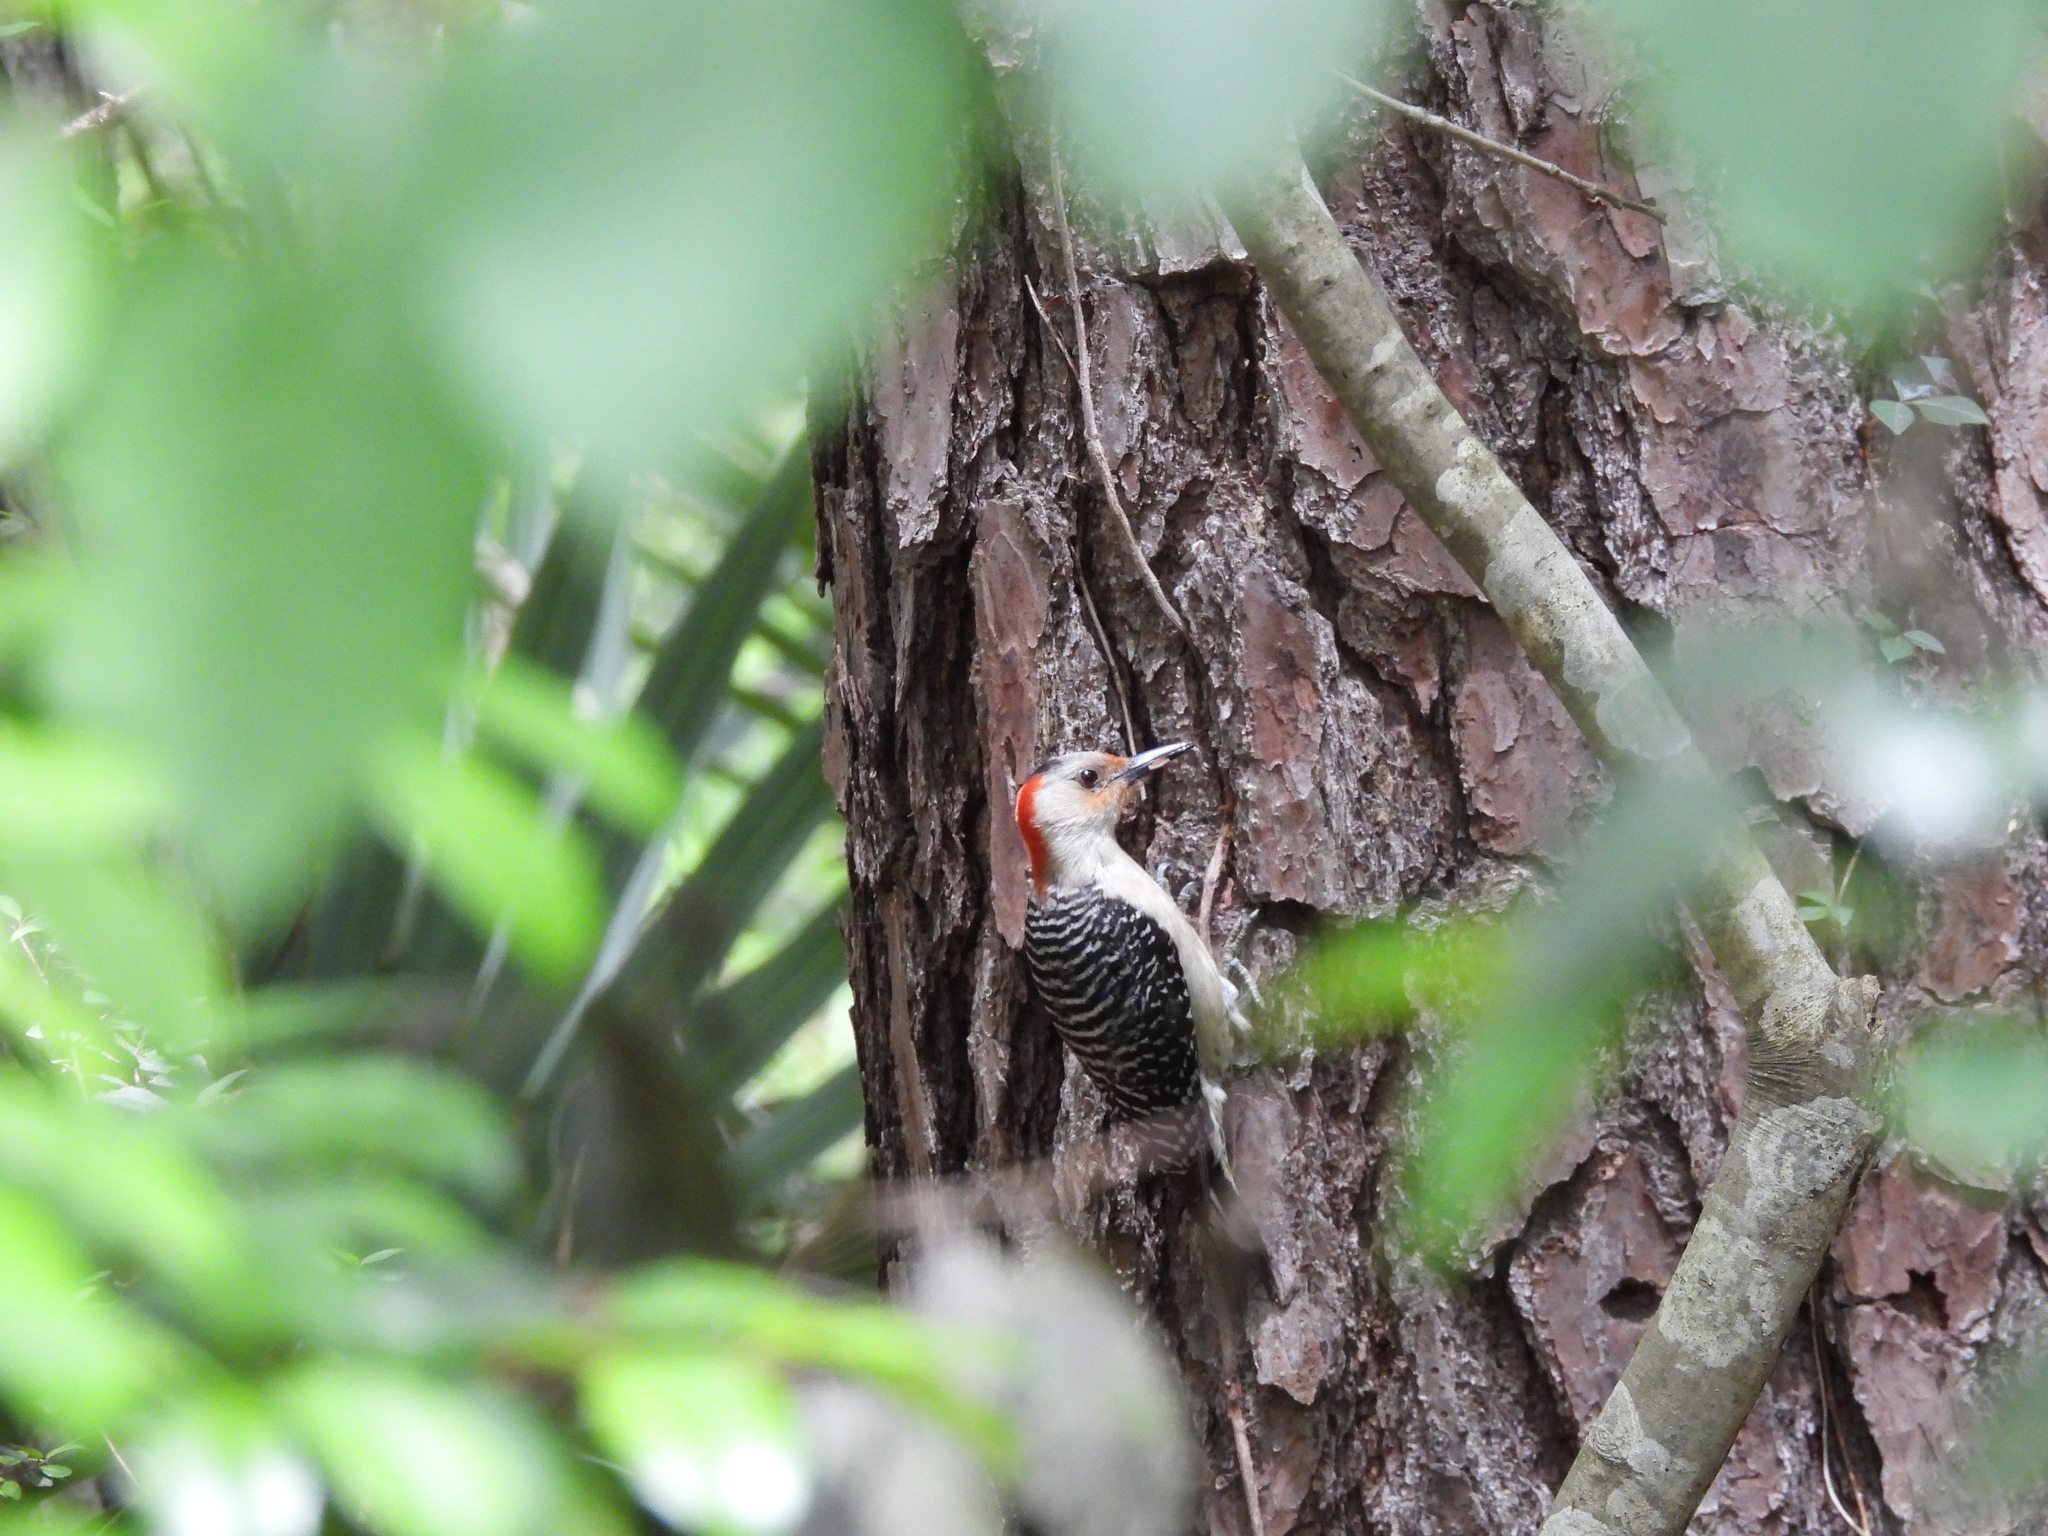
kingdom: Animalia
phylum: Chordata
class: Aves
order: Piciformes
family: Picidae
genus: Melanerpes
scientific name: Melanerpes carolinus
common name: Red-bellied woodpecker
